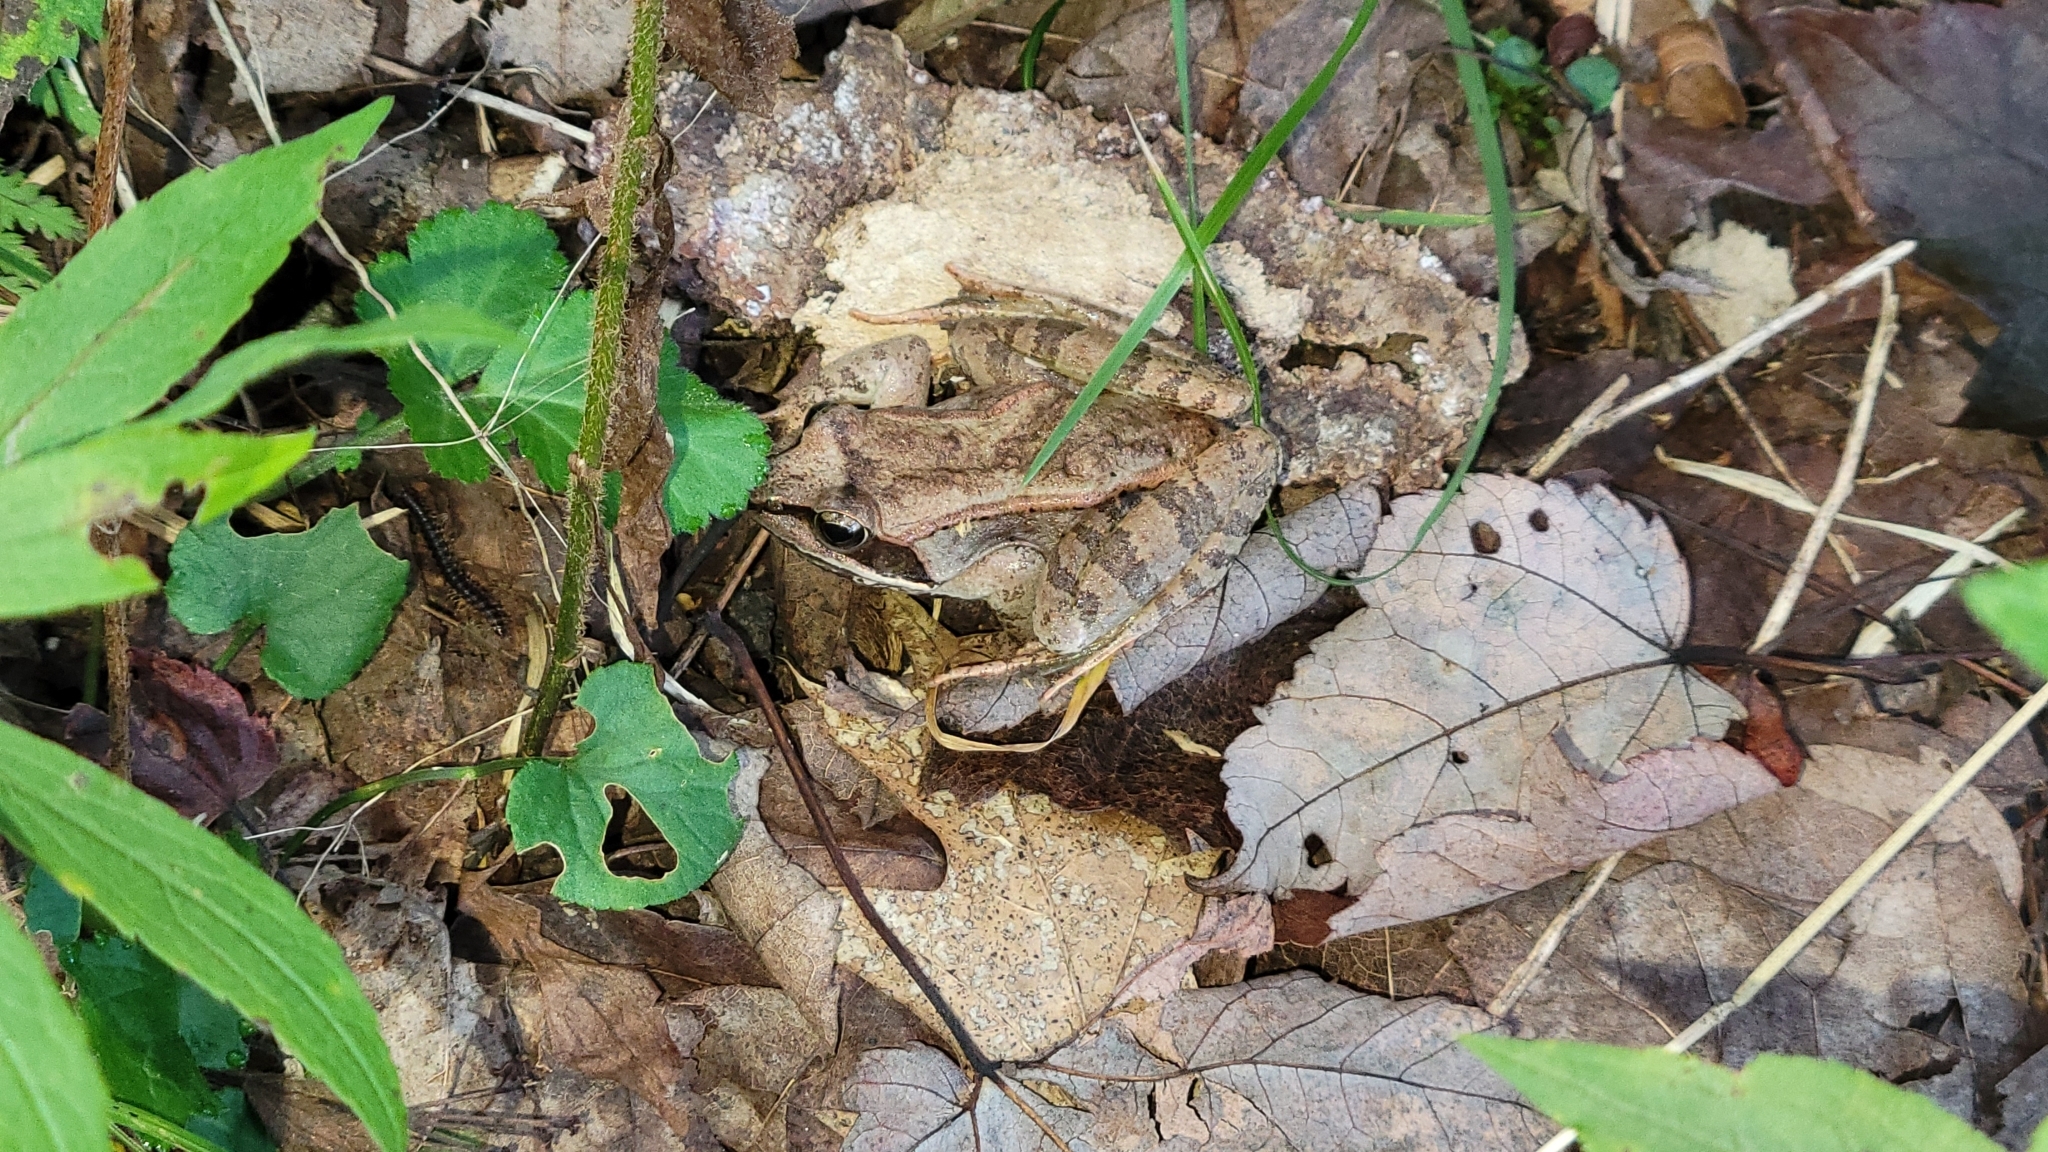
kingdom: Animalia
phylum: Chordata
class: Amphibia
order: Anura
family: Ranidae
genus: Lithobates
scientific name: Lithobates sylvaticus
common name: Wood frog
